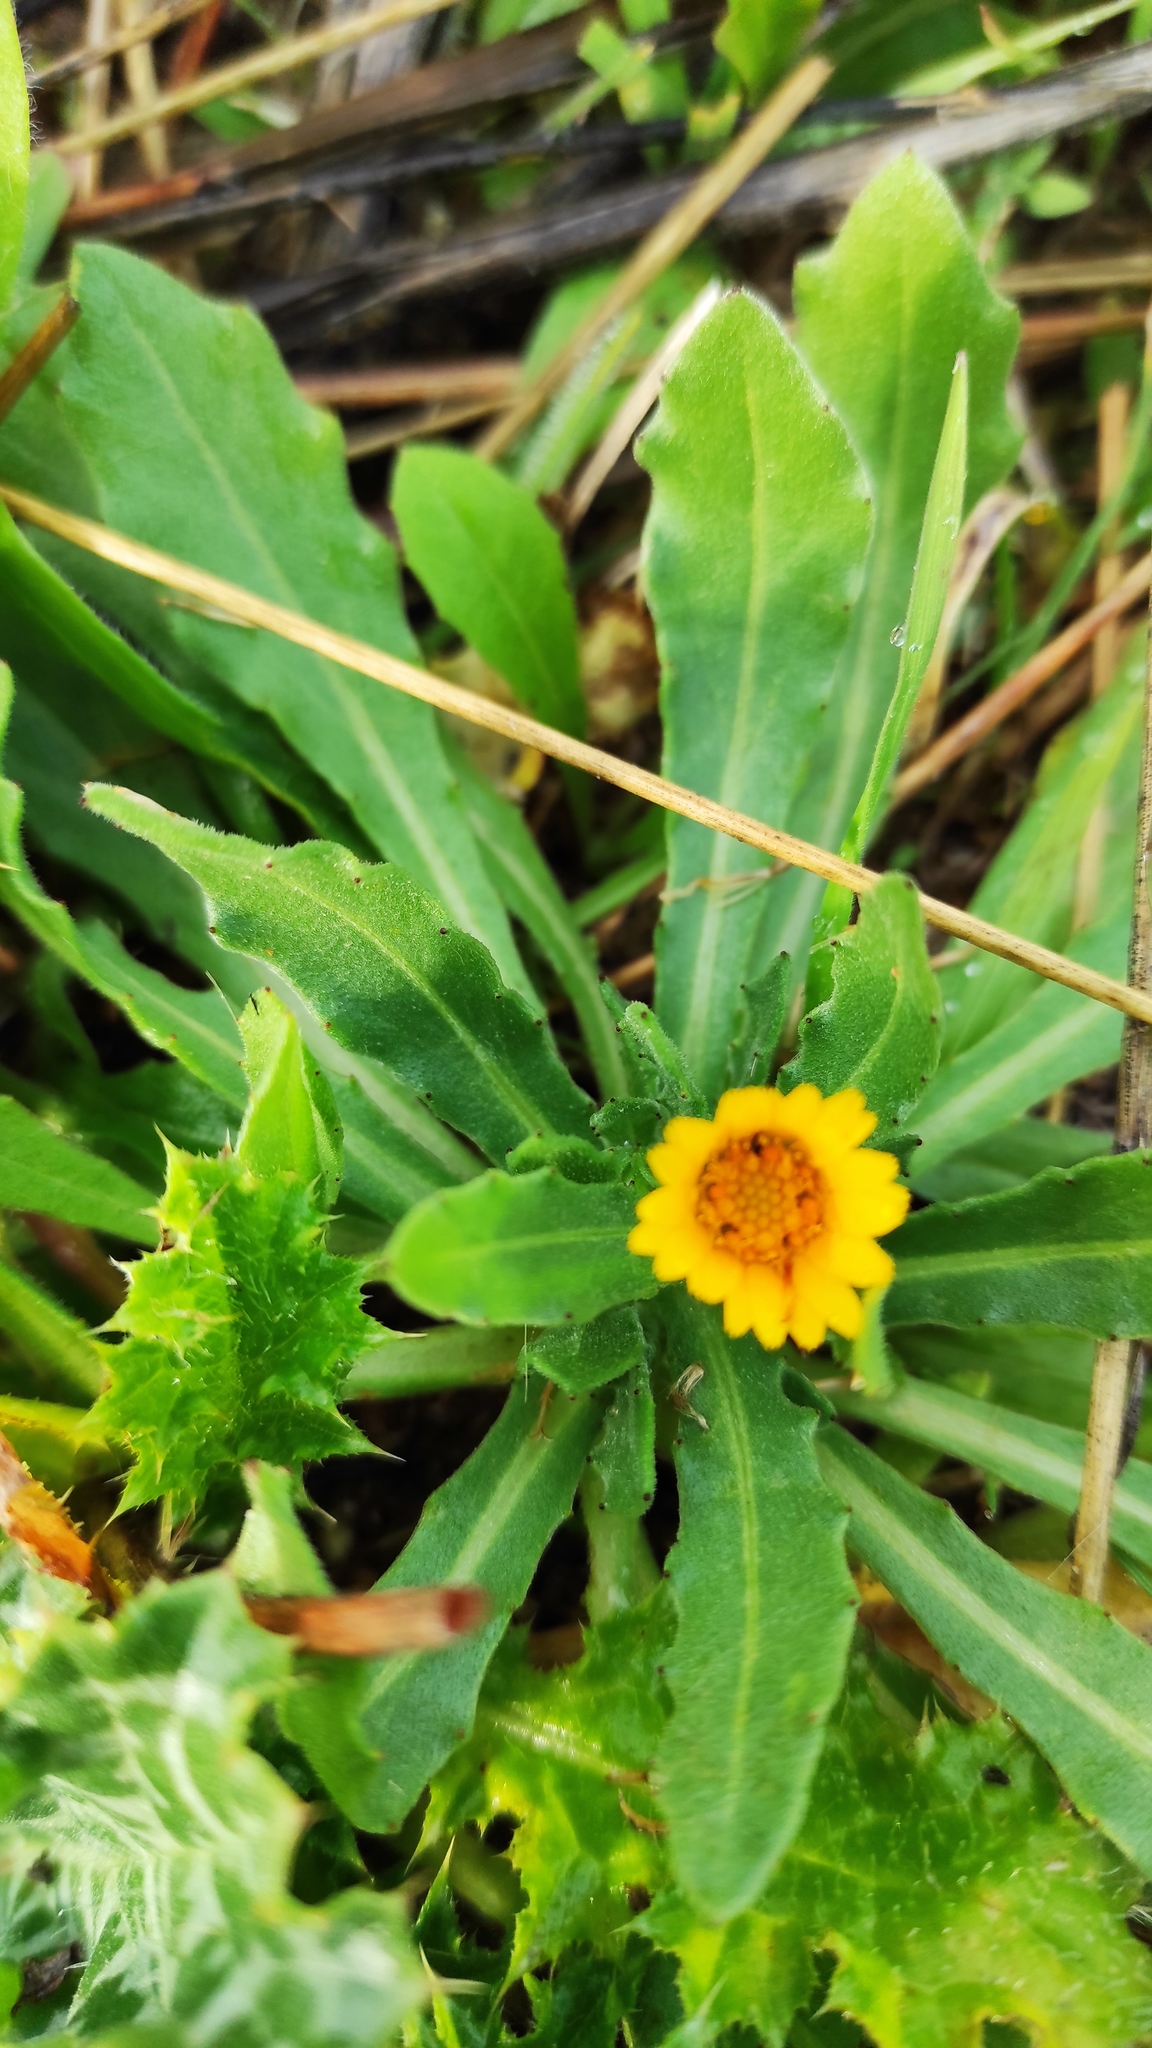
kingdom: Plantae
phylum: Tracheophyta
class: Magnoliopsida
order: Asterales
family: Asteraceae
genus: Calendula
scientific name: Calendula arvensis
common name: Field marigold
